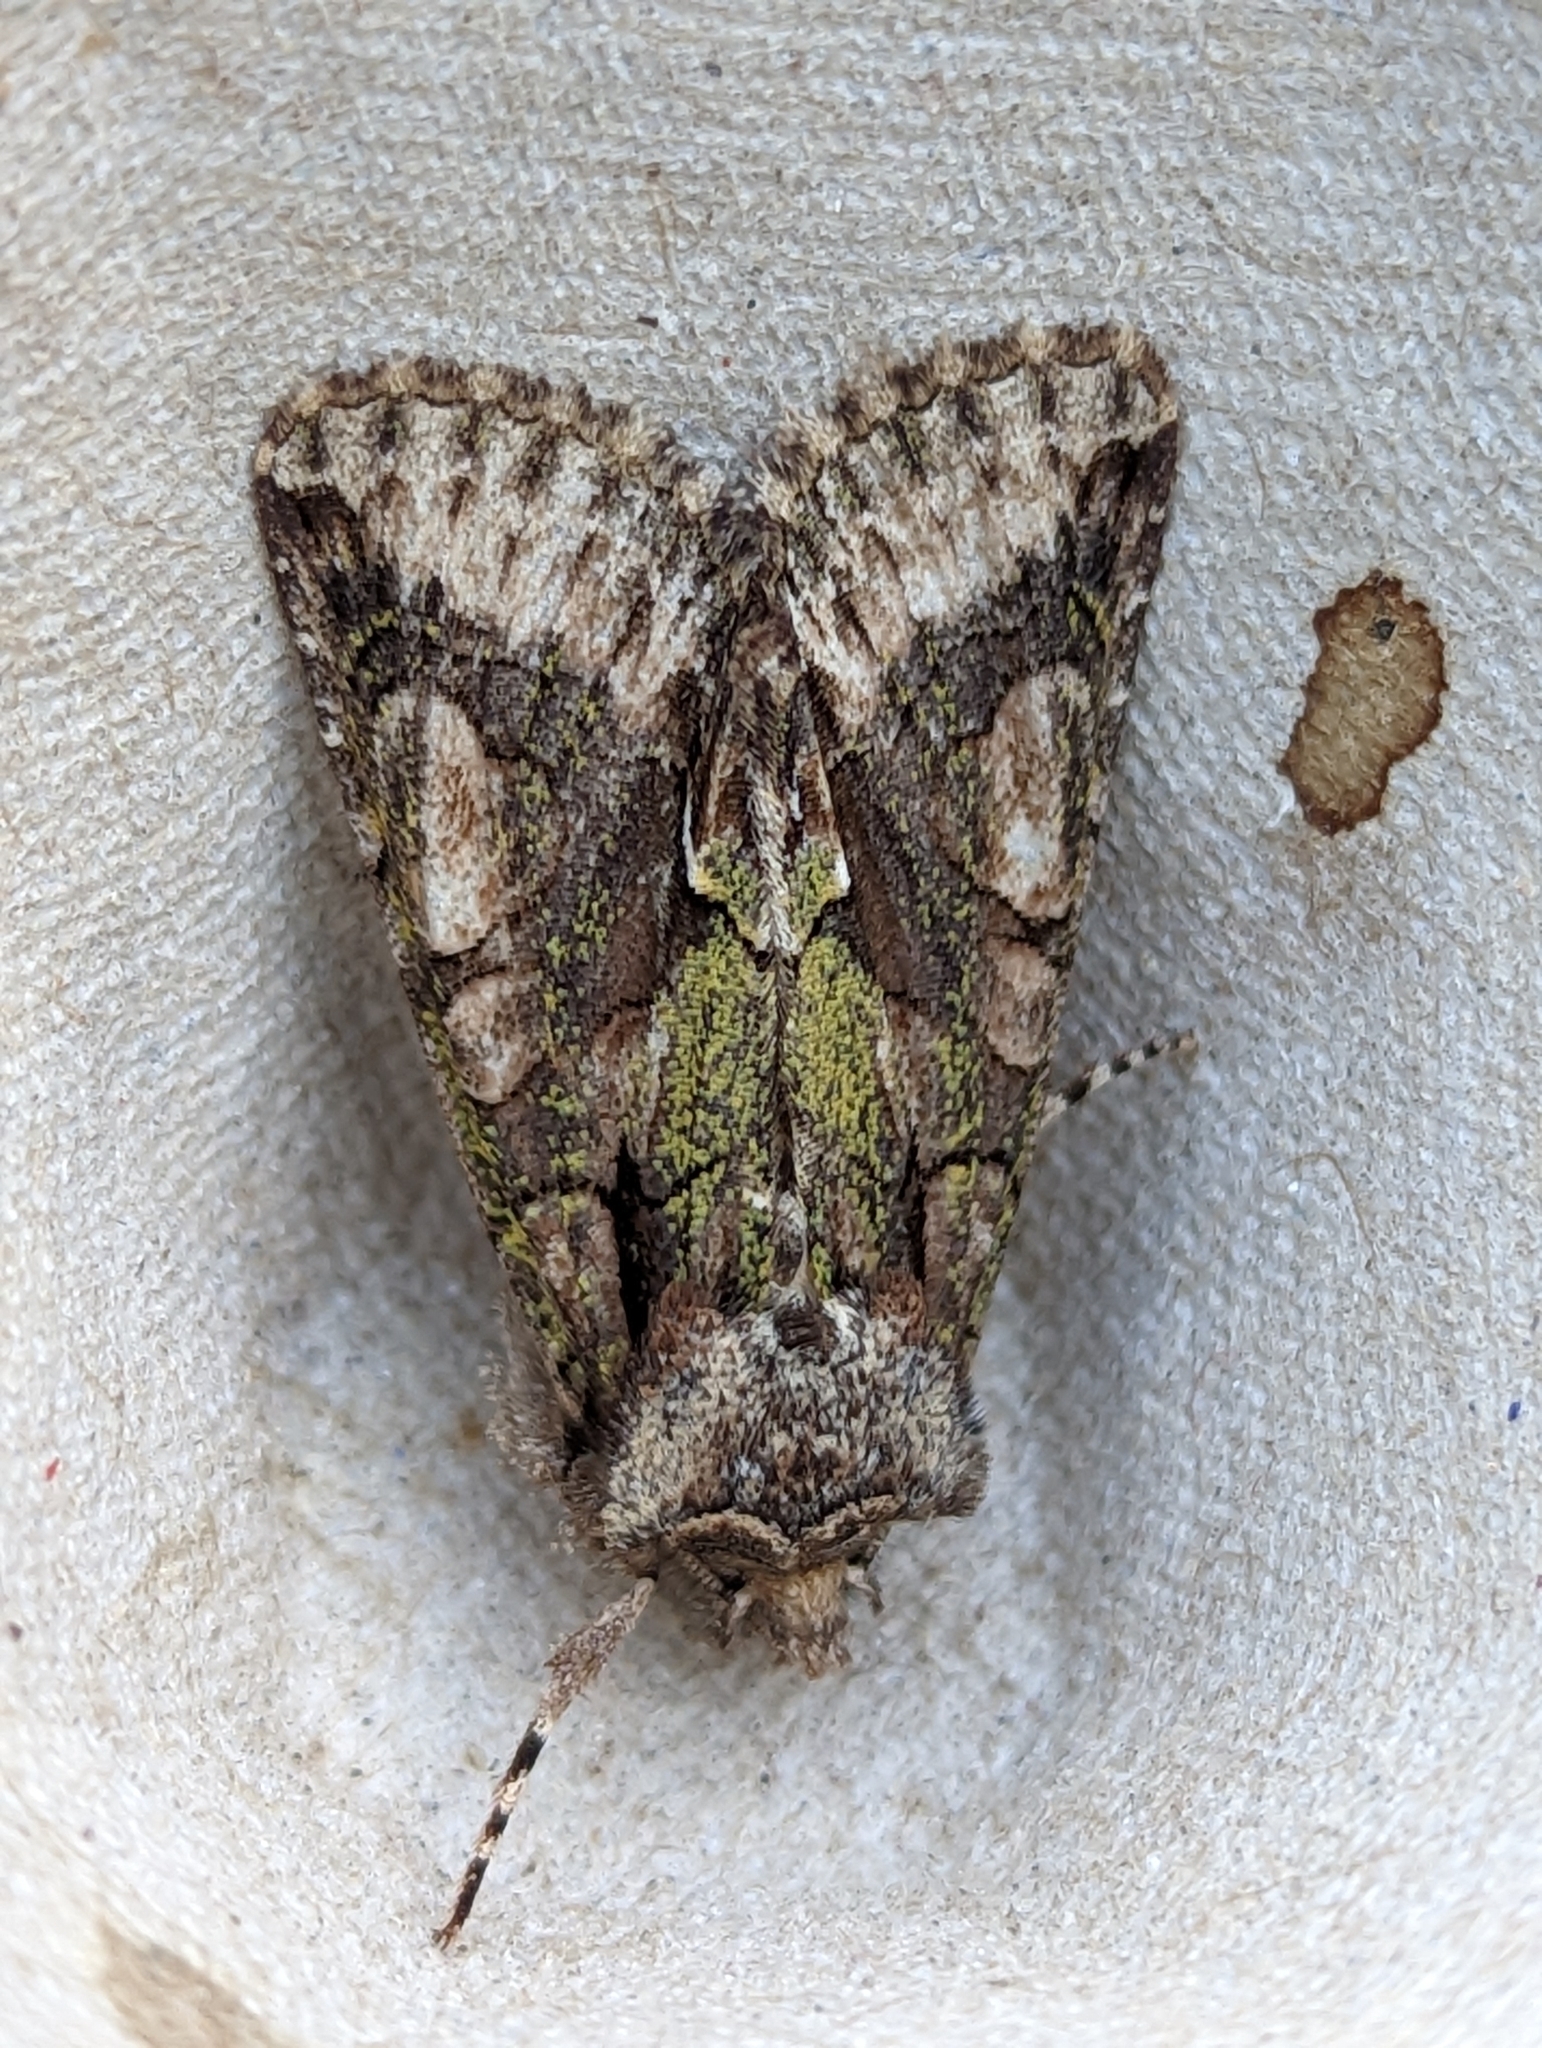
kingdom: Animalia
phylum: Arthropoda
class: Insecta
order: Lepidoptera
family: Noctuidae
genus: Allophyes
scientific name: Allophyes oxyacanthae
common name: Green-brindled crescent
